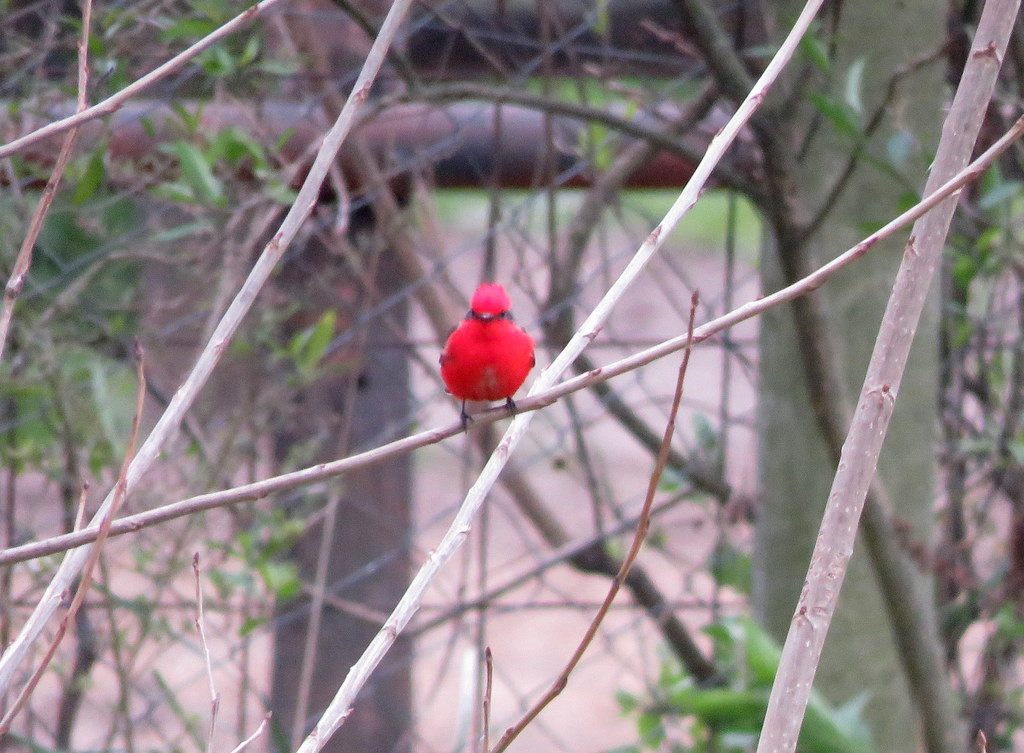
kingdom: Animalia
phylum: Chordata
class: Aves
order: Passeriformes
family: Tyrannidae
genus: Pyrocephalus
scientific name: Pyrocephalus rubinus
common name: Vermilion flycatcher
